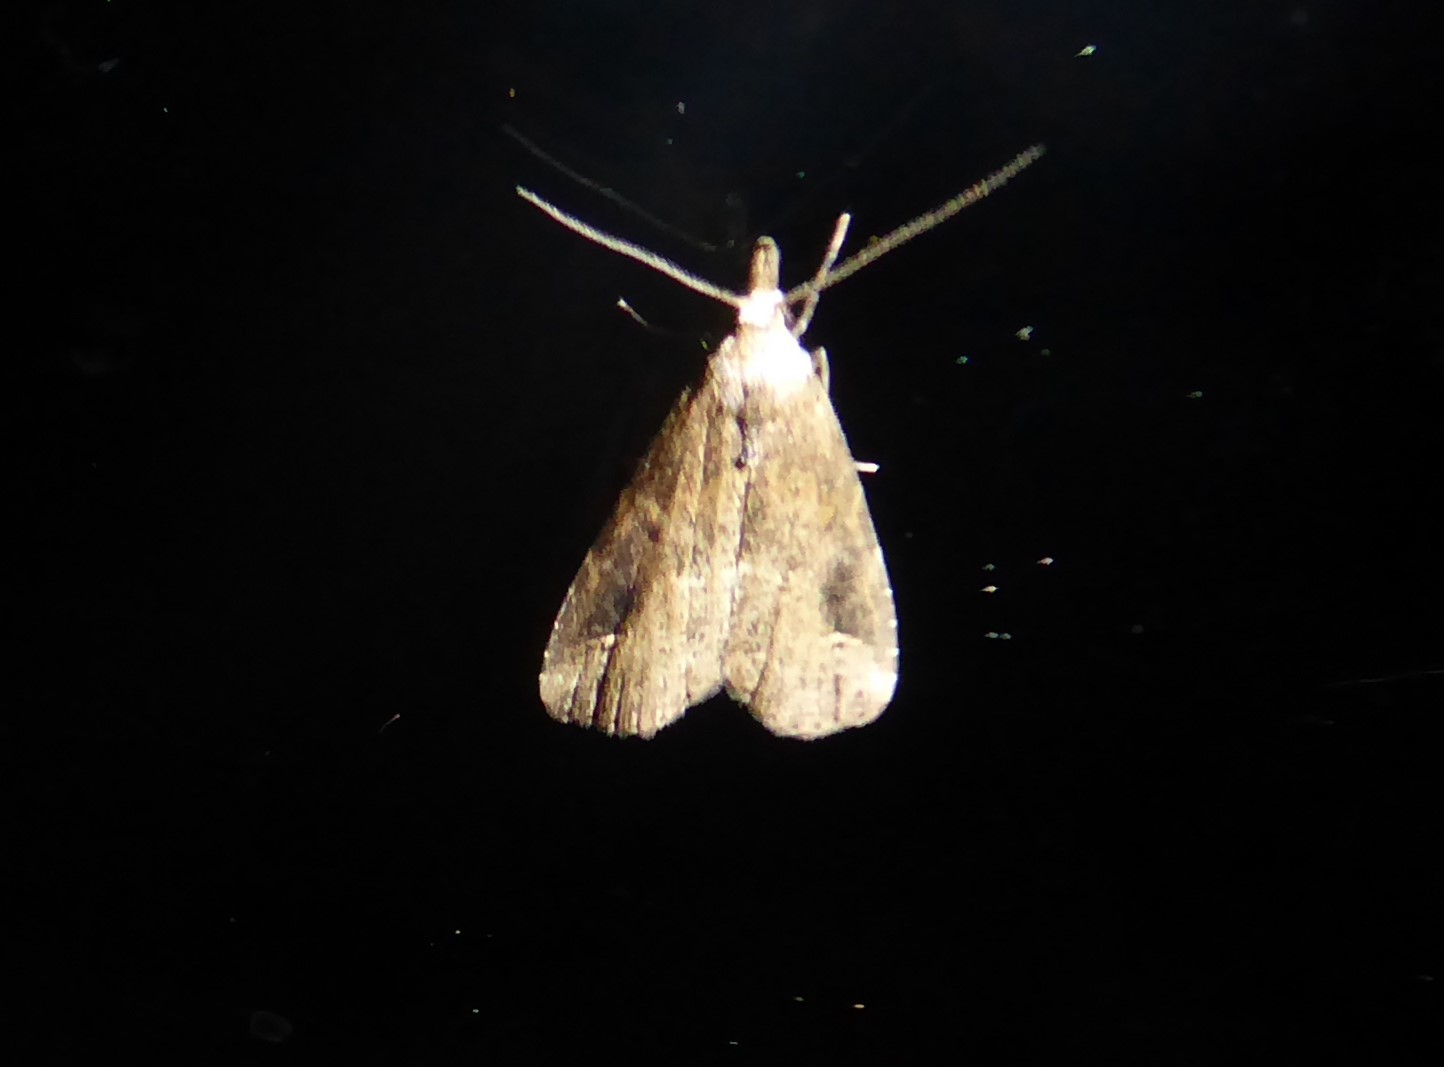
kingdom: Animalia
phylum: Arthropoda
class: Insecta
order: Lepidoptera
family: Erebidae
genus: Schrankia
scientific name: Schrankia costaestrigalis
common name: Pinion-streaked snout
